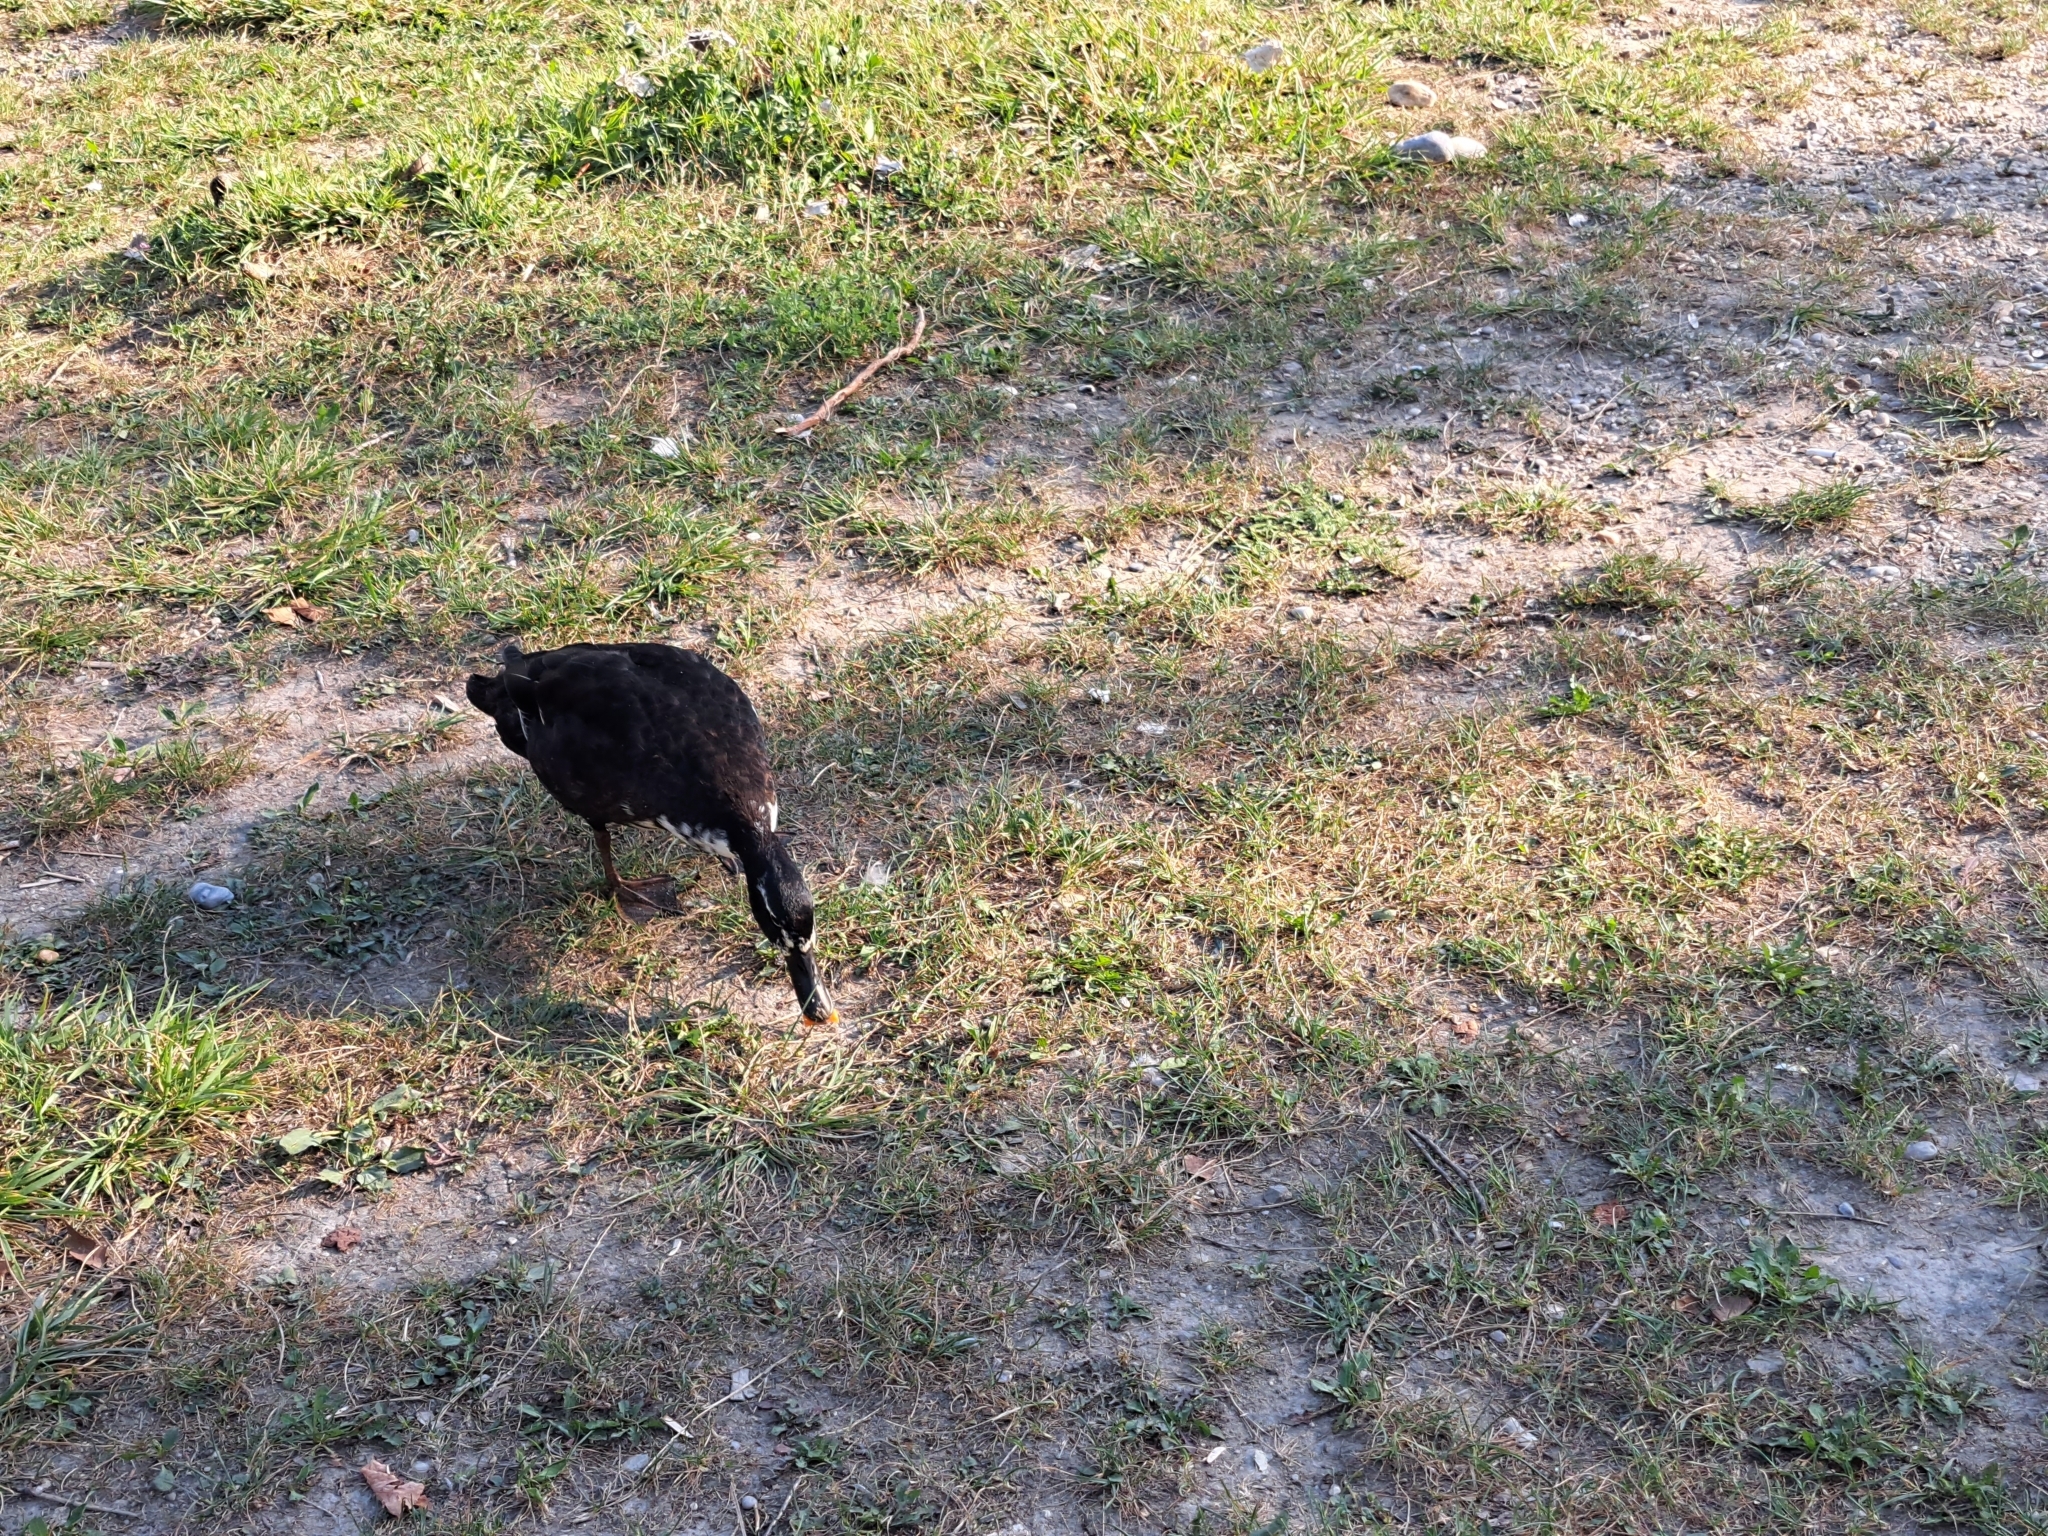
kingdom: Animalia
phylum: Chordata
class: Aves
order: Anseriformes
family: Anatidae
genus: Anas
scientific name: Anas platyrhynchos
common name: Mallard
